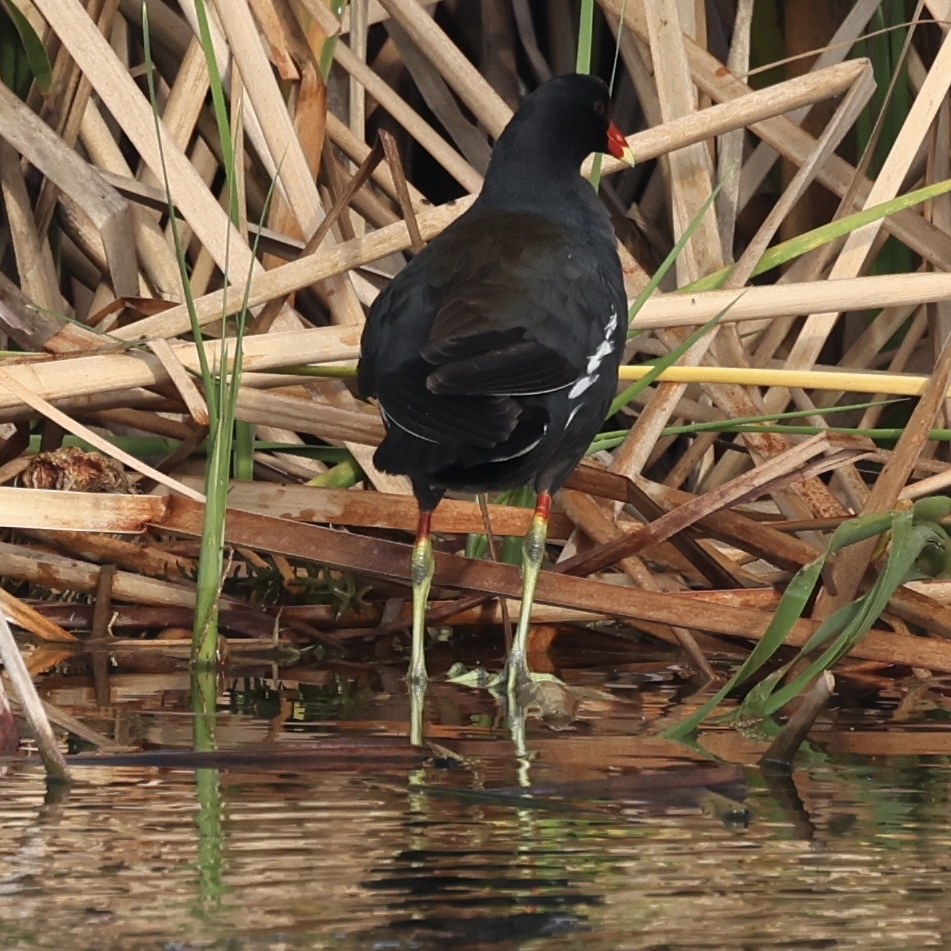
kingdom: Animalia
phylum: Chordata
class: Aves
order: Gruiformes
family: Rallidae
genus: Gallinula
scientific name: Gallinula chloropus
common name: Common moorhen
